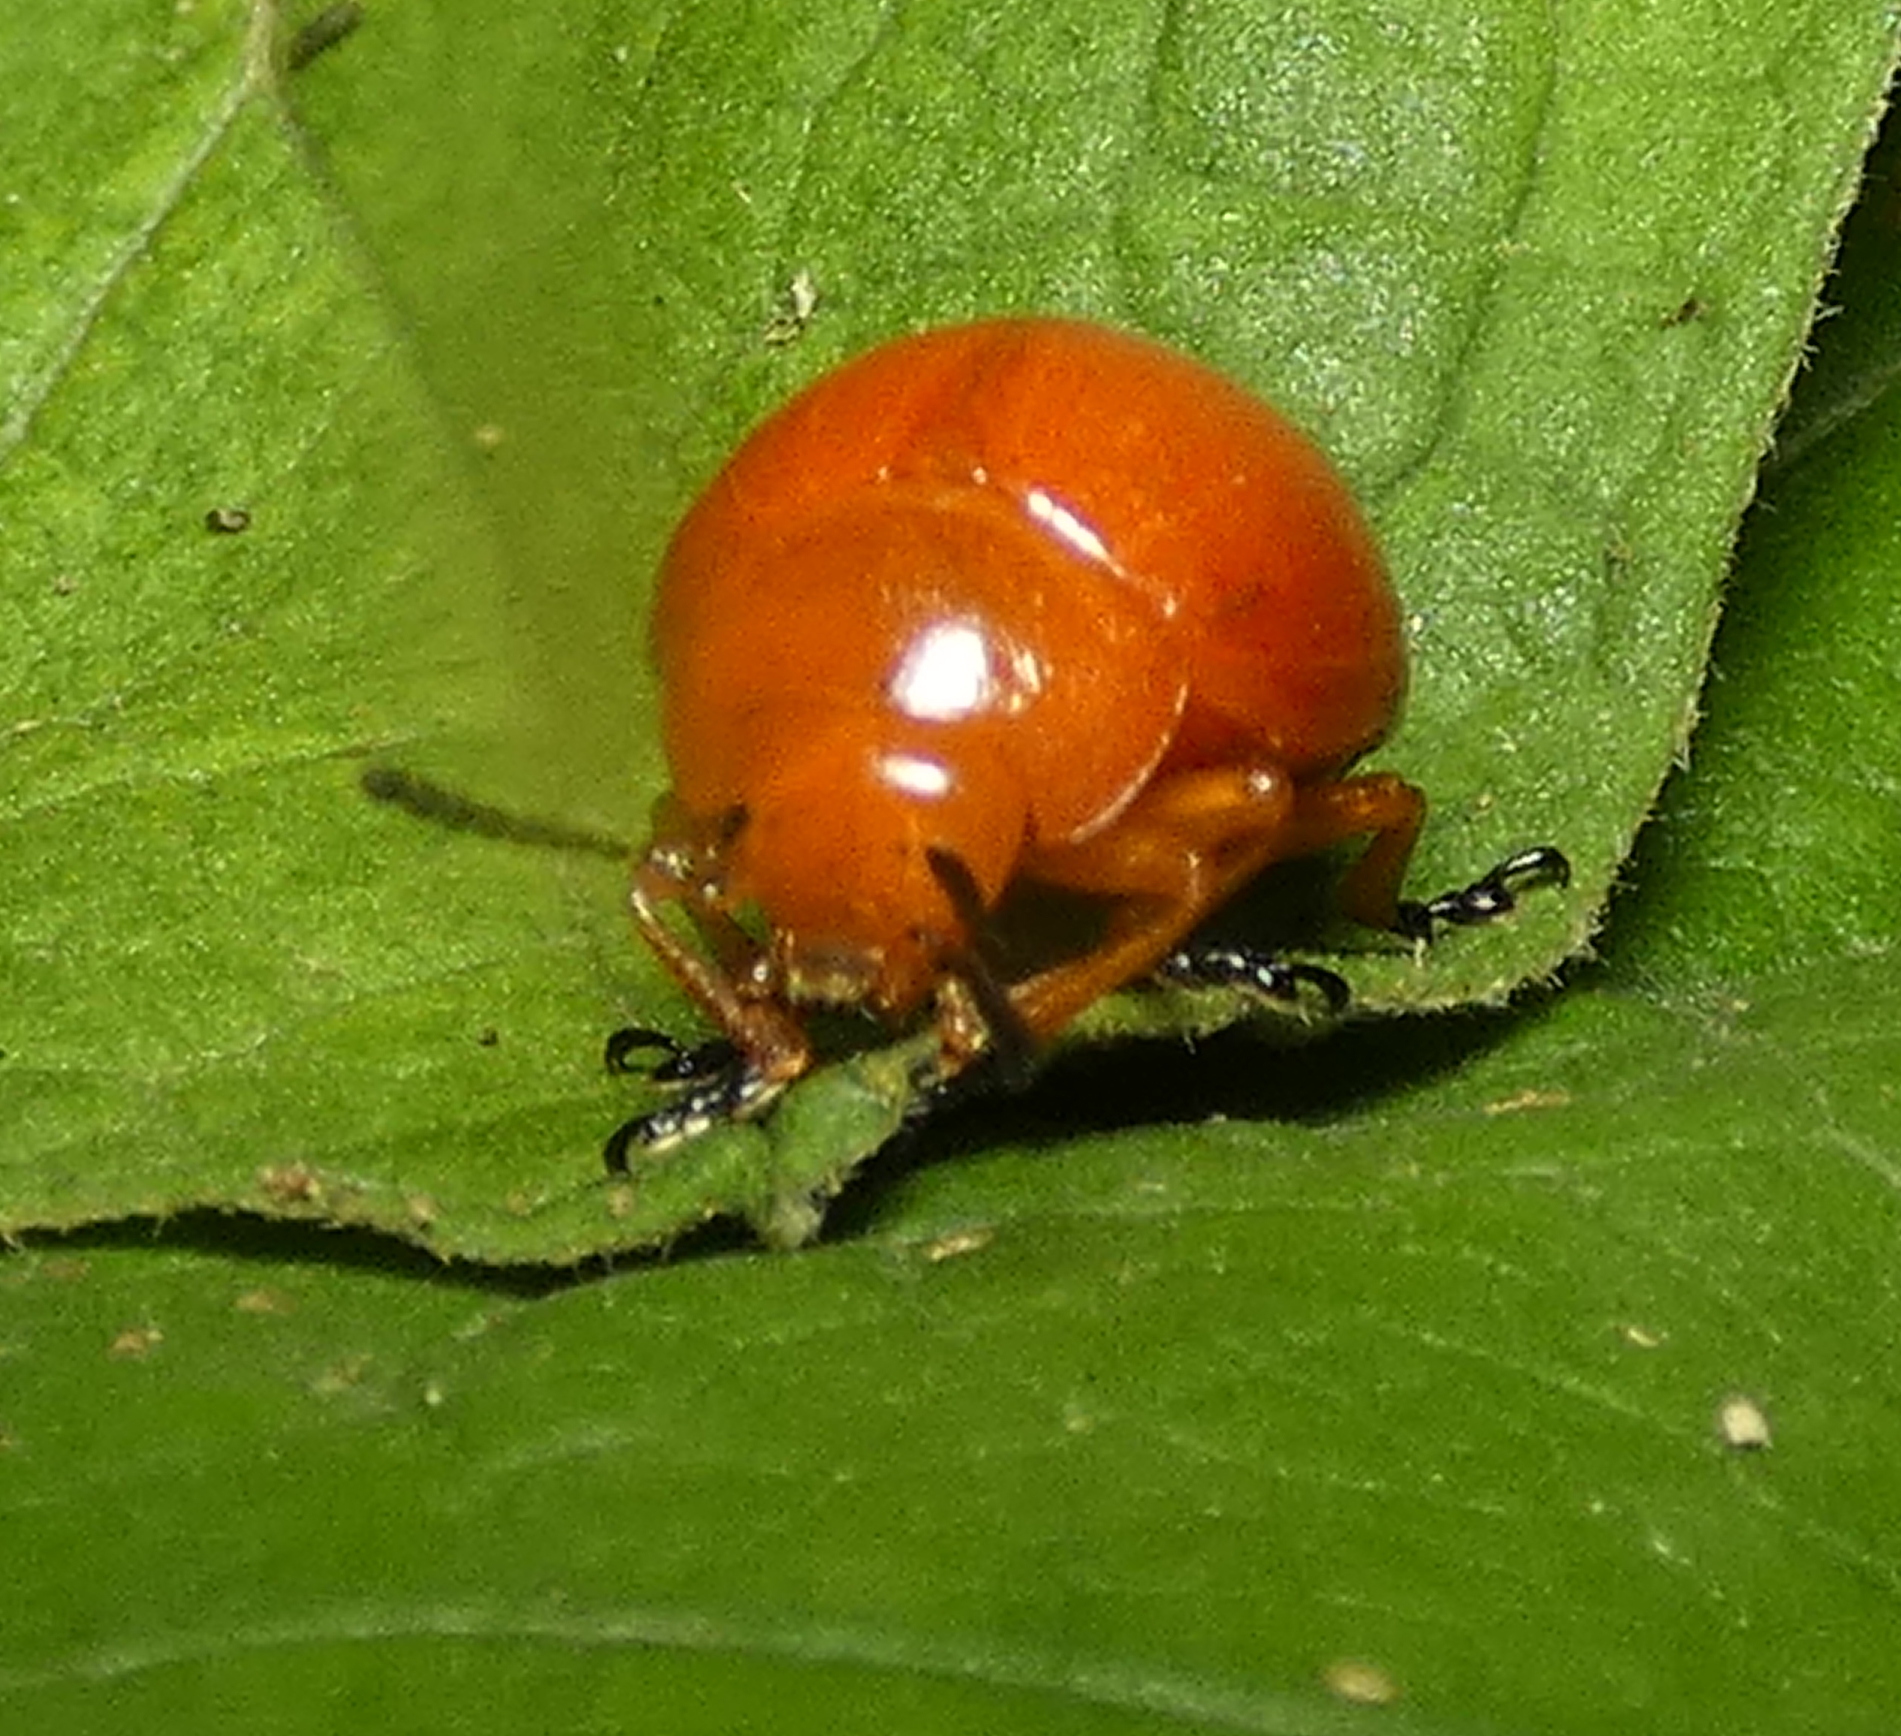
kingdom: Animalia
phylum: Arthropoda
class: Insecta
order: Coleoptera
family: Chrysomelidae
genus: Eugonycha
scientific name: Eugonycha
